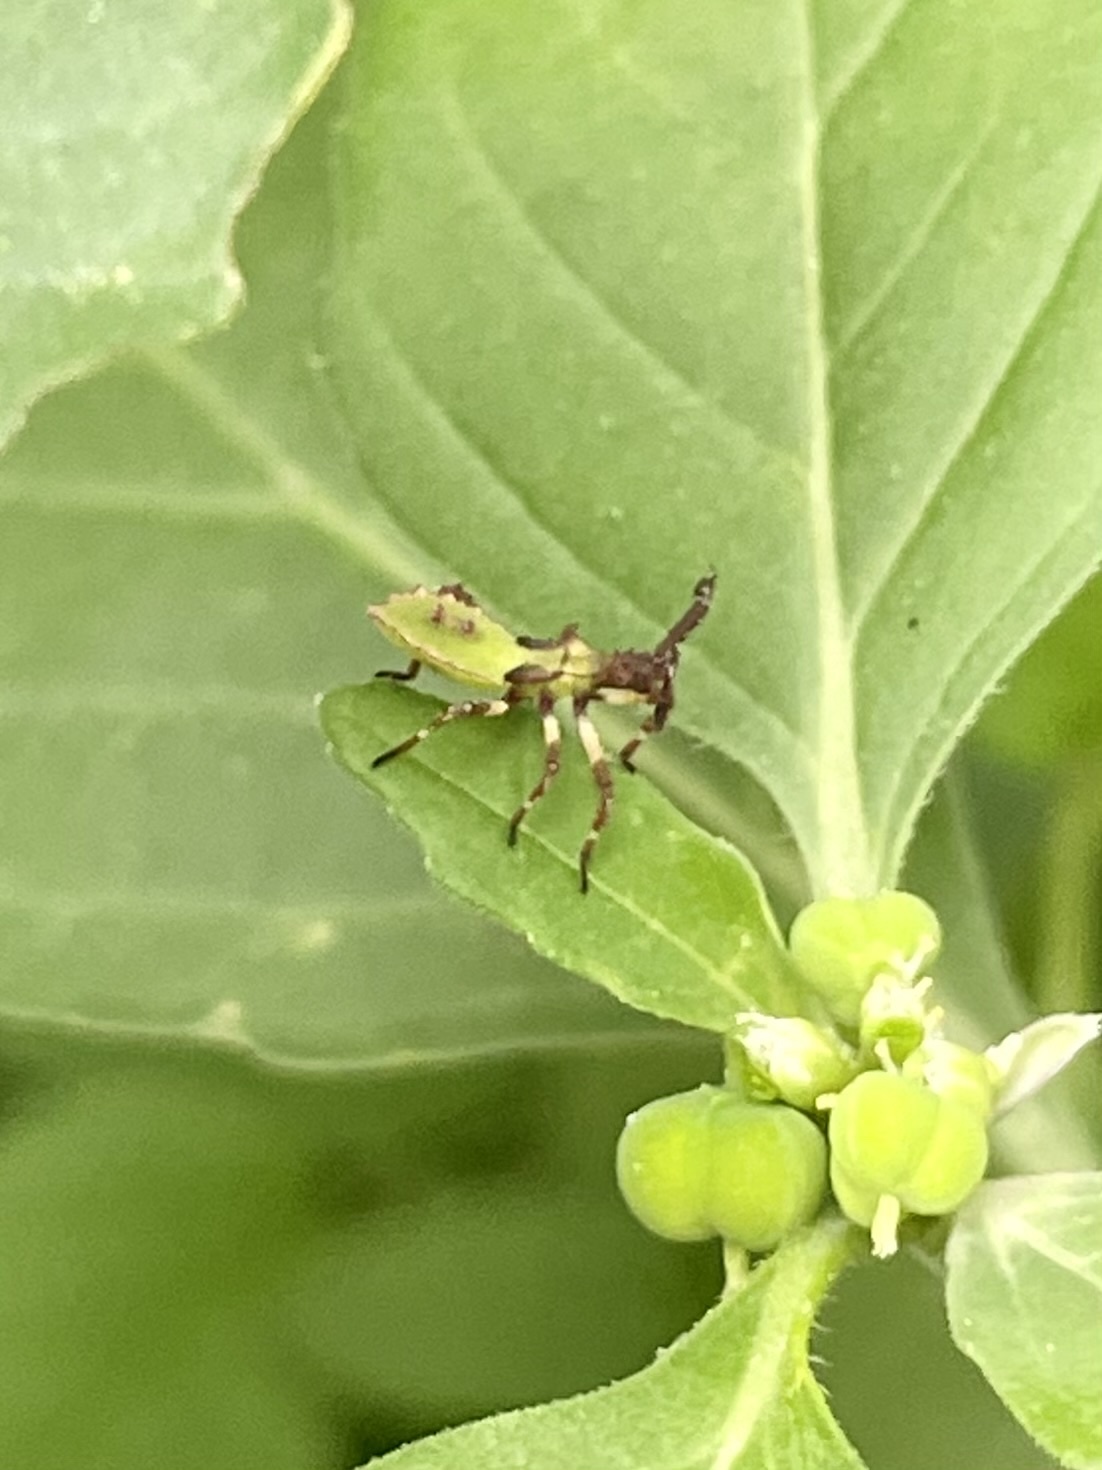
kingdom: Animalia
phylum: Arthropoda
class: Insecta
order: Hemiptera
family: Coreidae
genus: Chariesterus
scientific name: Chariesterus antennator
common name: Flat horned coreid
